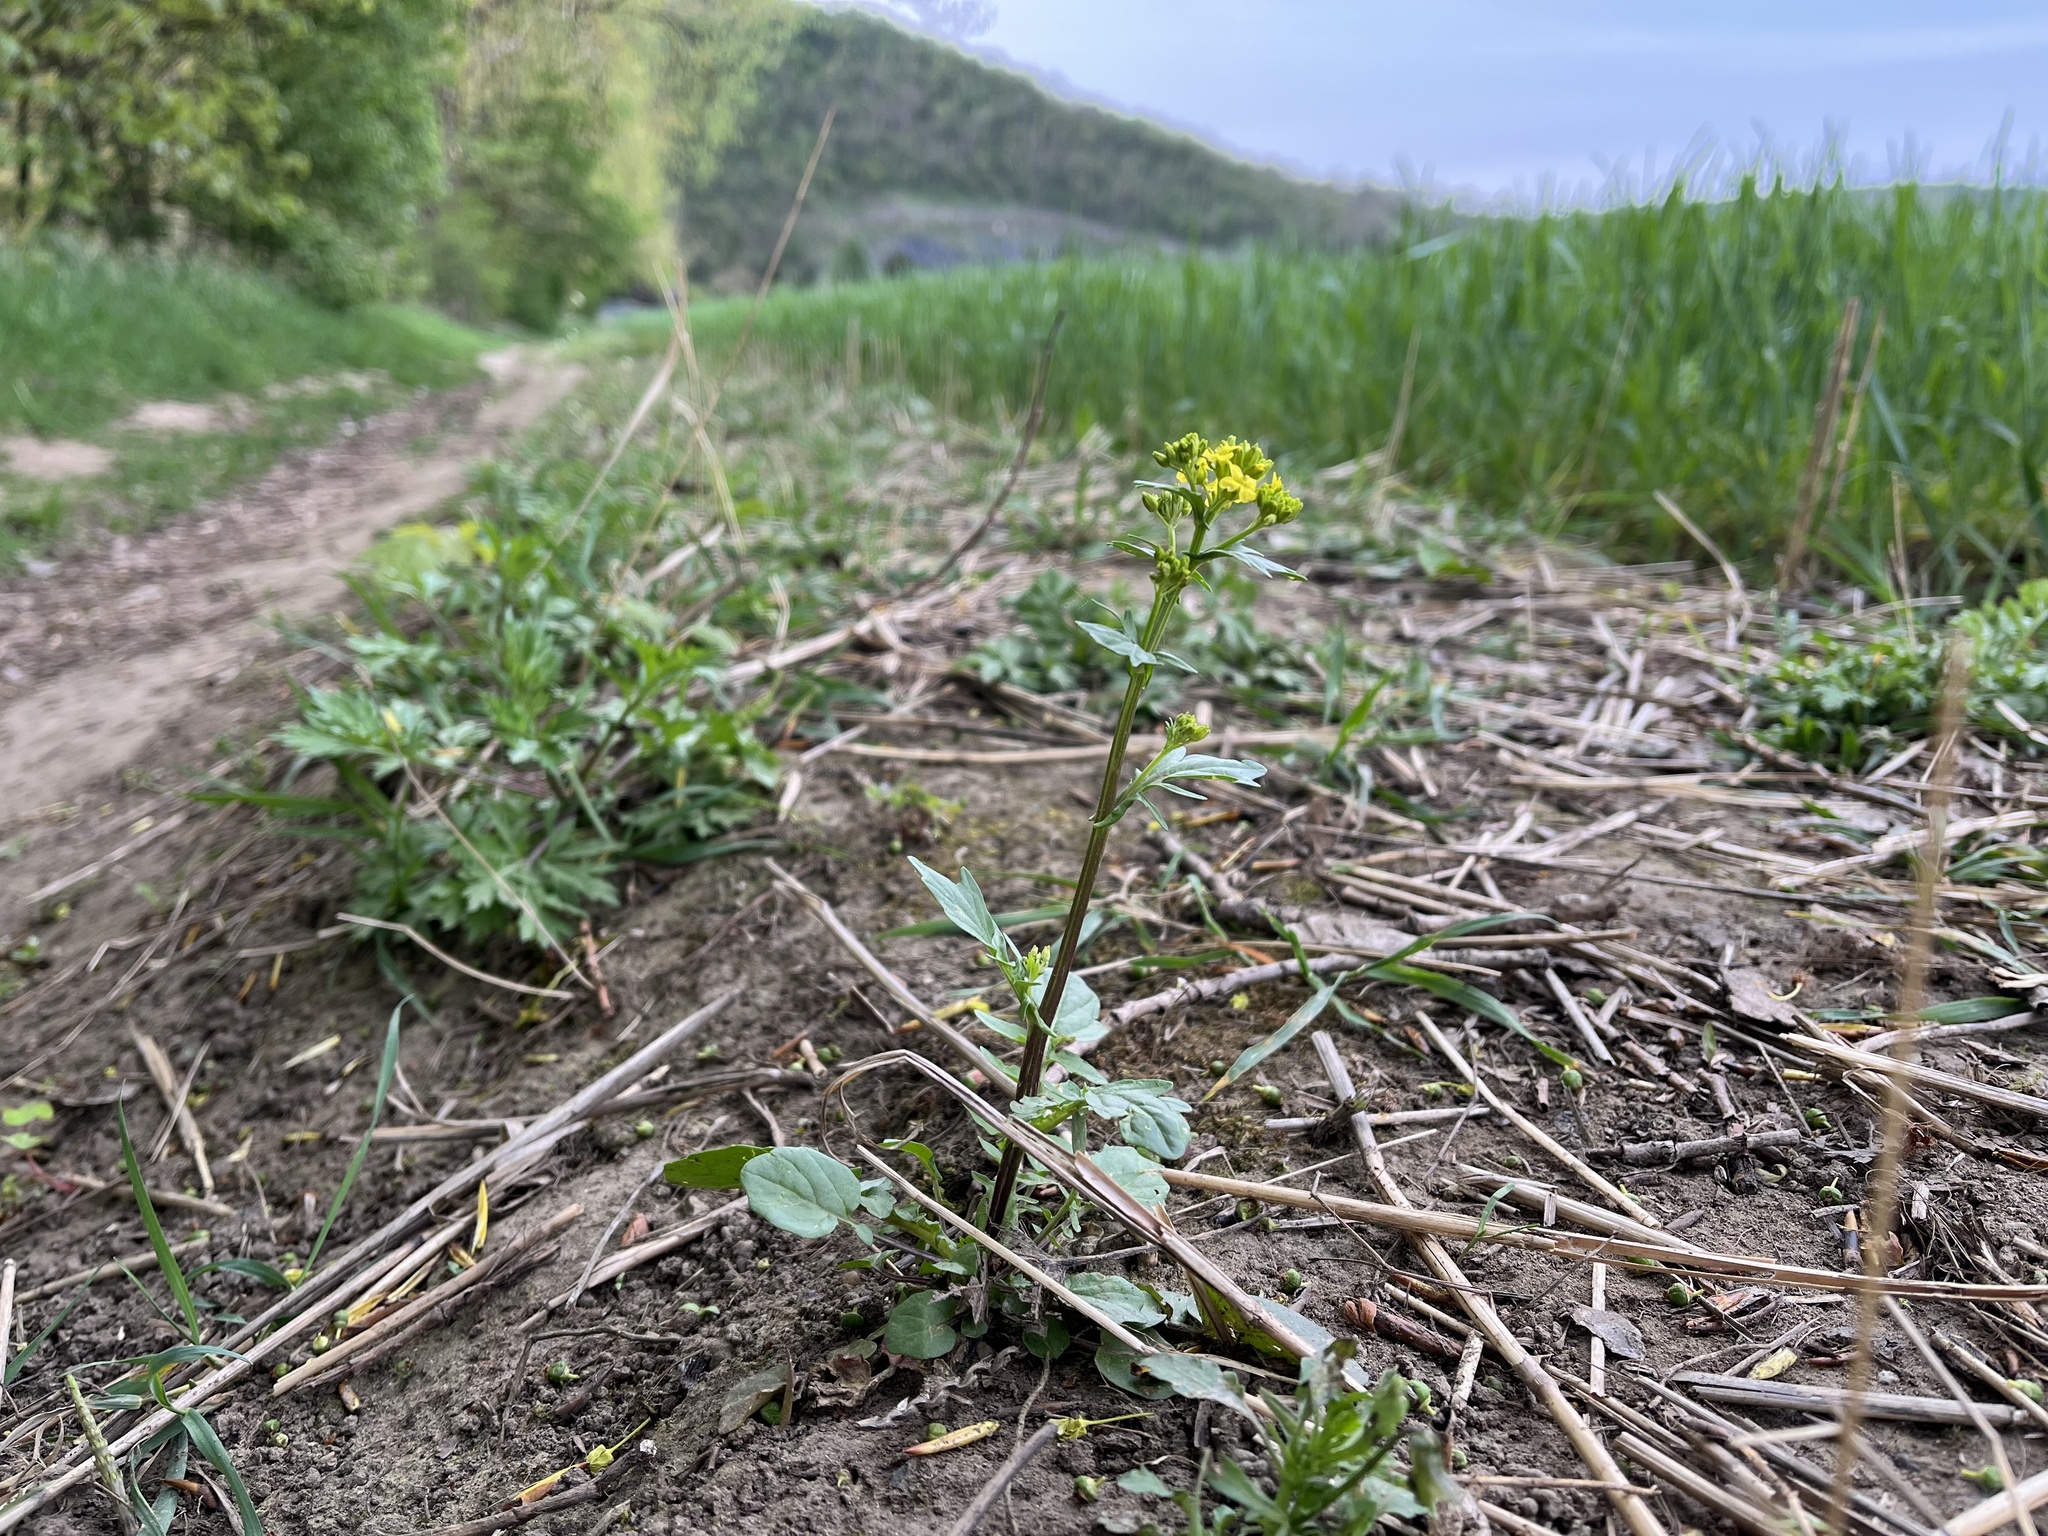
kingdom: Plantae
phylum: Tracheophyta
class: Magnoliopsida
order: Brassicales
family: Brassicaceae
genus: Barbarea
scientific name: Barbarea vulgaris
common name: Cressy-greens
